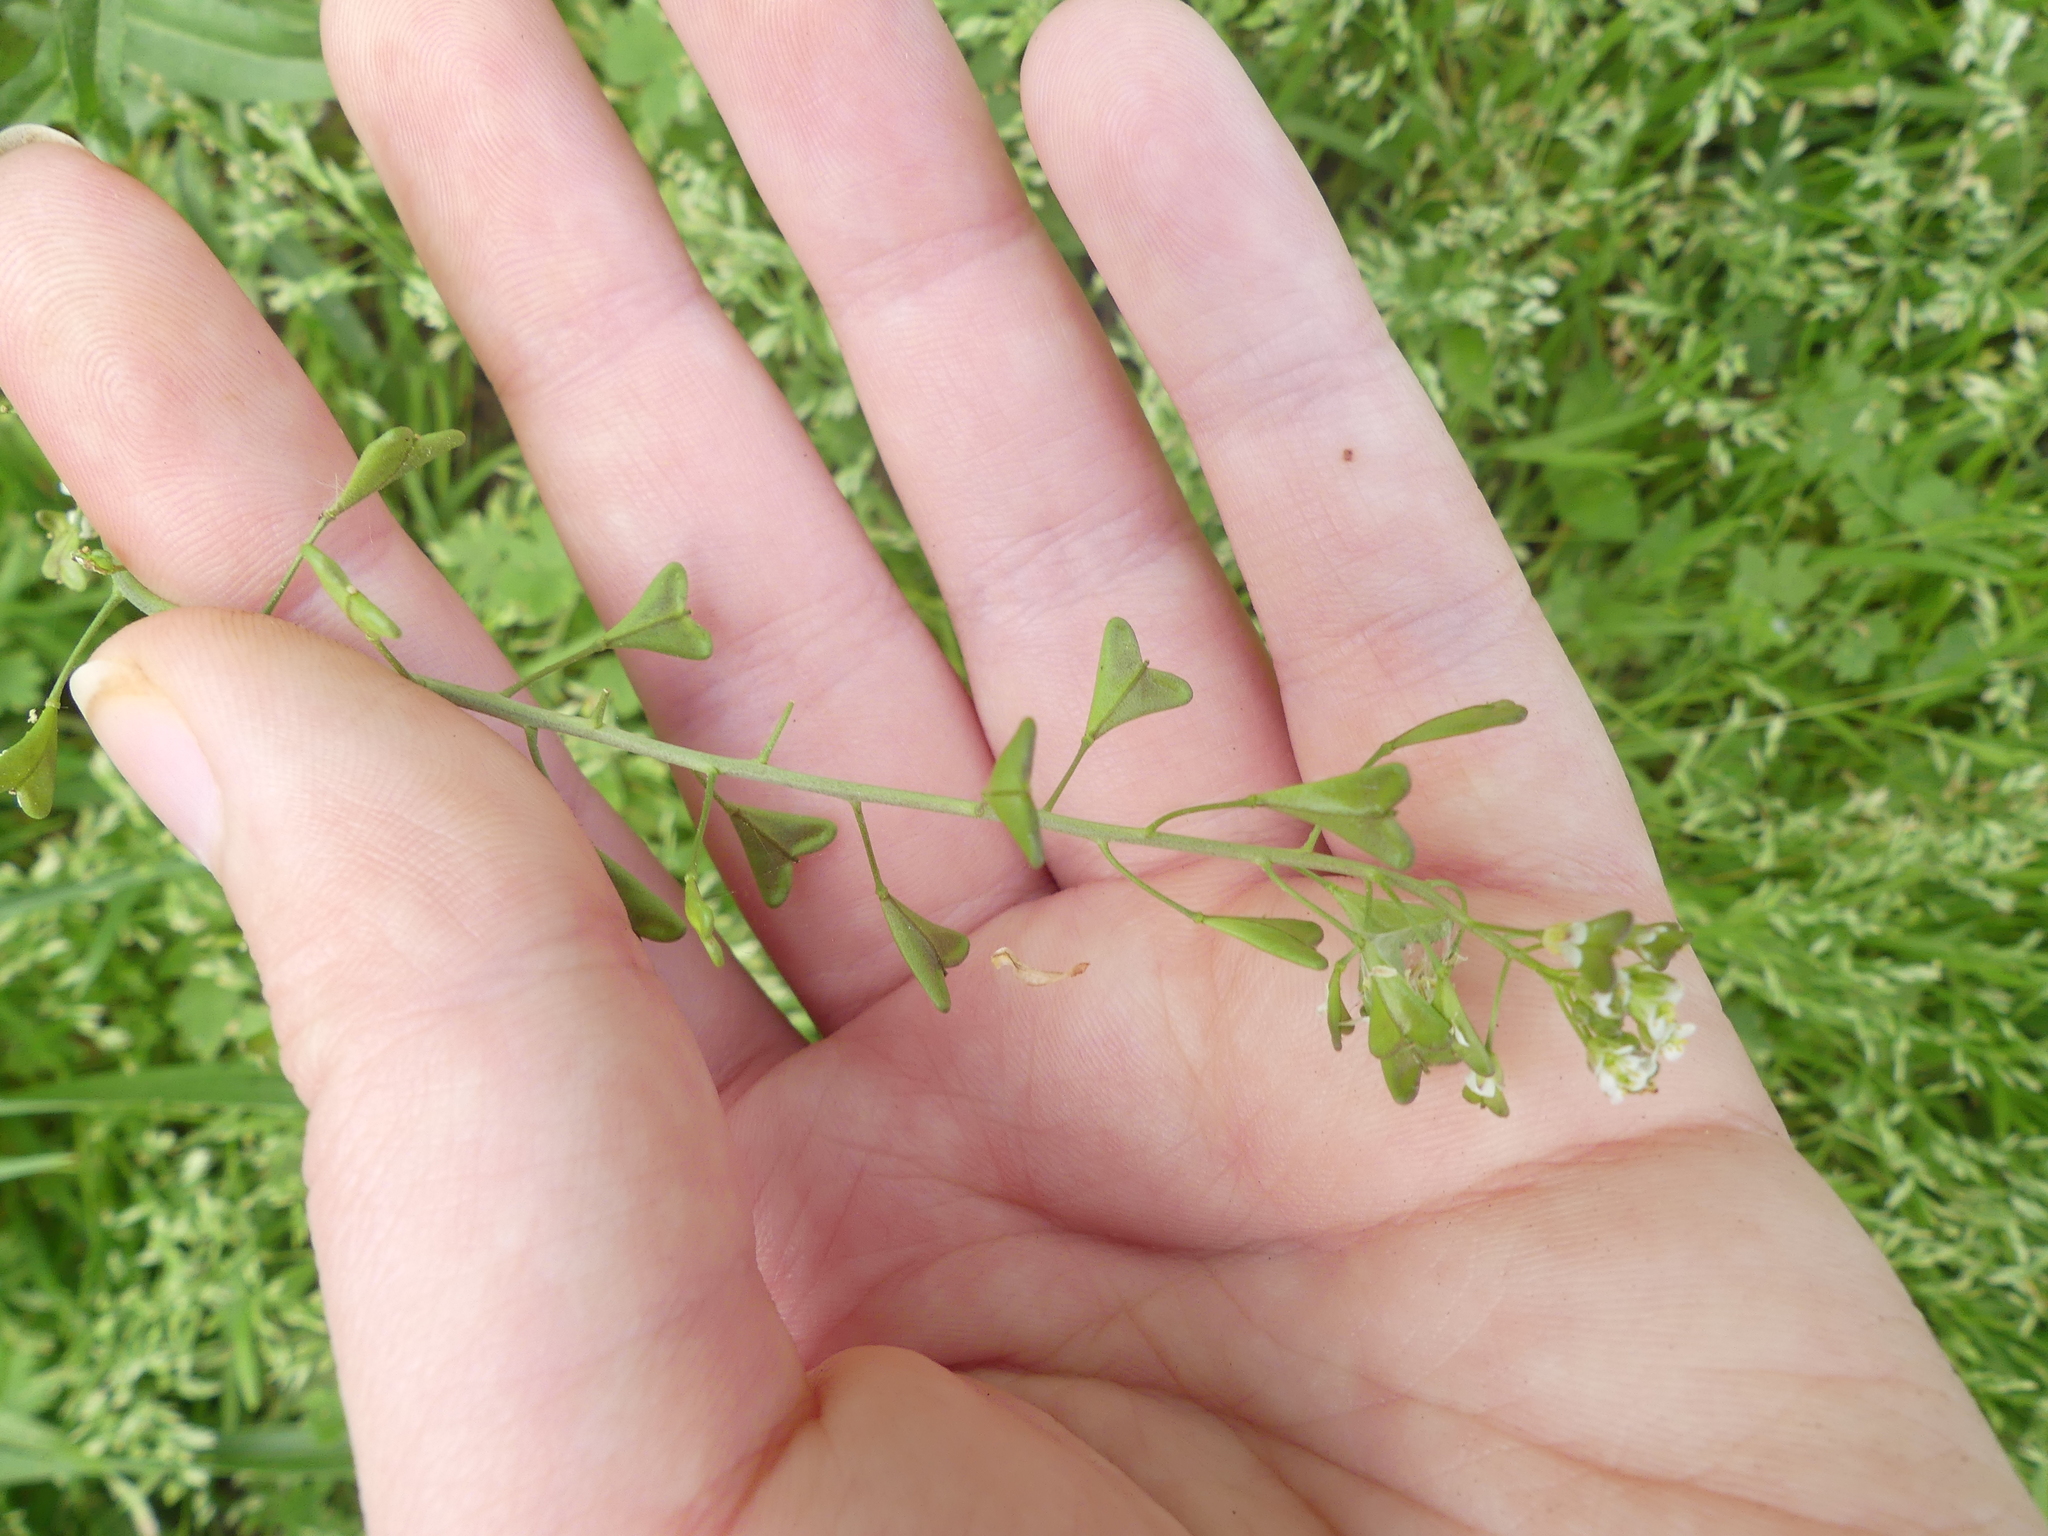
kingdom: Plantae
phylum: Tracheophyta
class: Magnoliopsida
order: Brassicales
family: Brassicaceae
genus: Capsella
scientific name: Capsella bursa-pastoris
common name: Shepherd's purse
